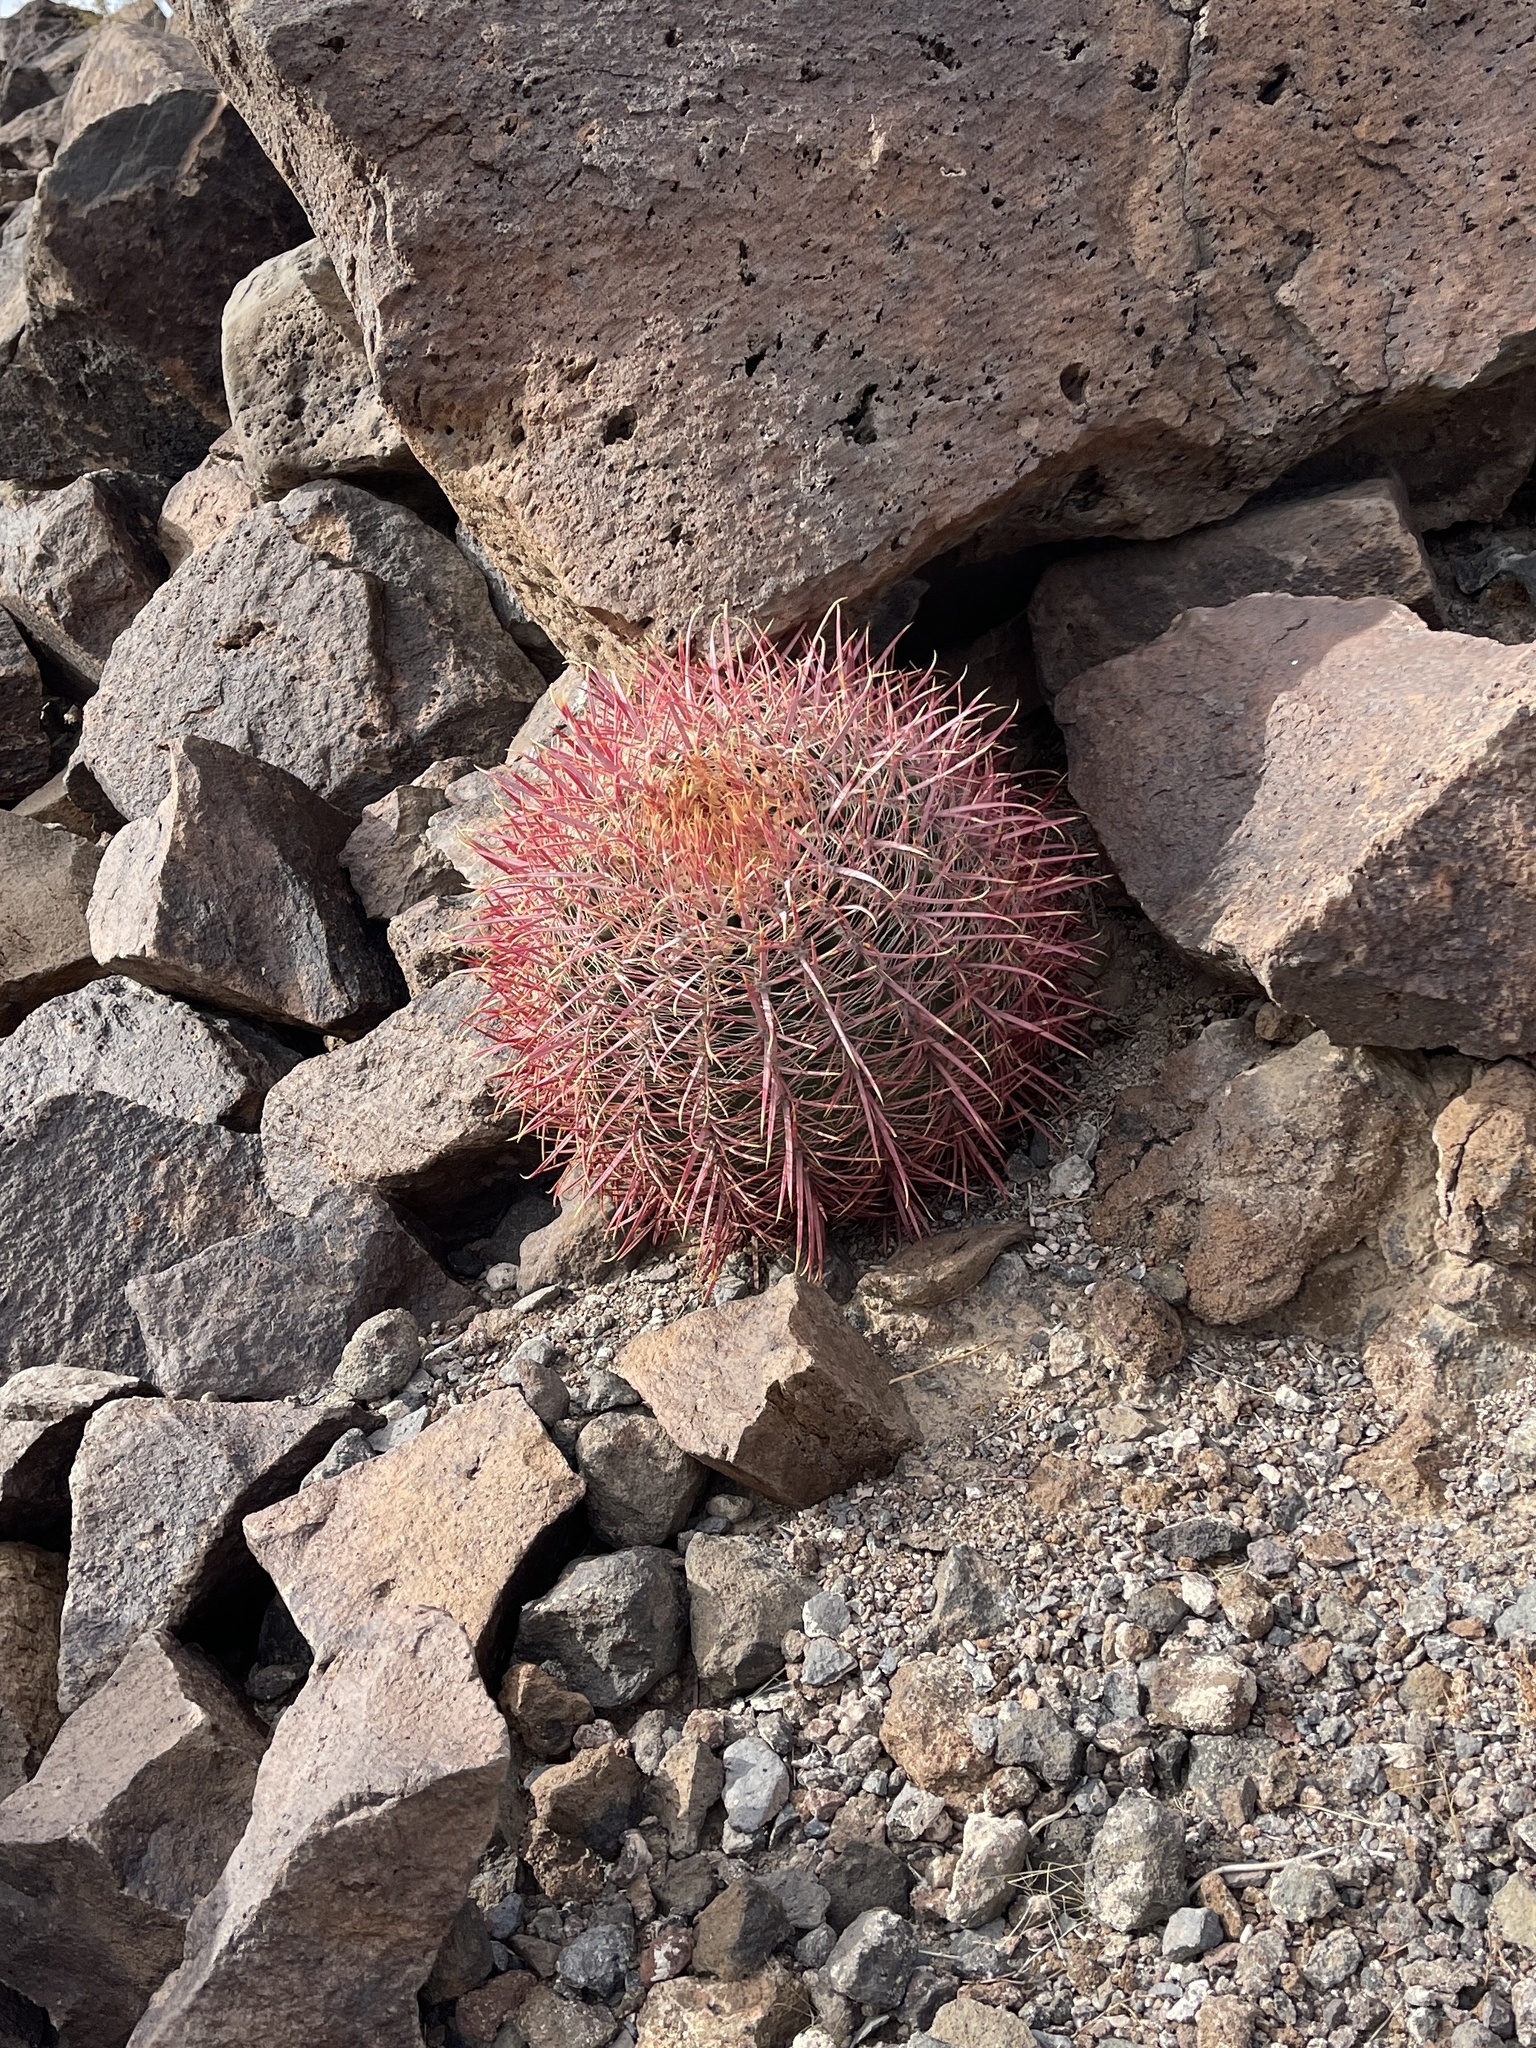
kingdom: Plantae
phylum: Tracheophyta
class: Magnoliopsida
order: Caryophyllales
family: Cactaceae
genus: Ferocactus
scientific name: Ferocactus cylindraceus
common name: California barrel cactus
